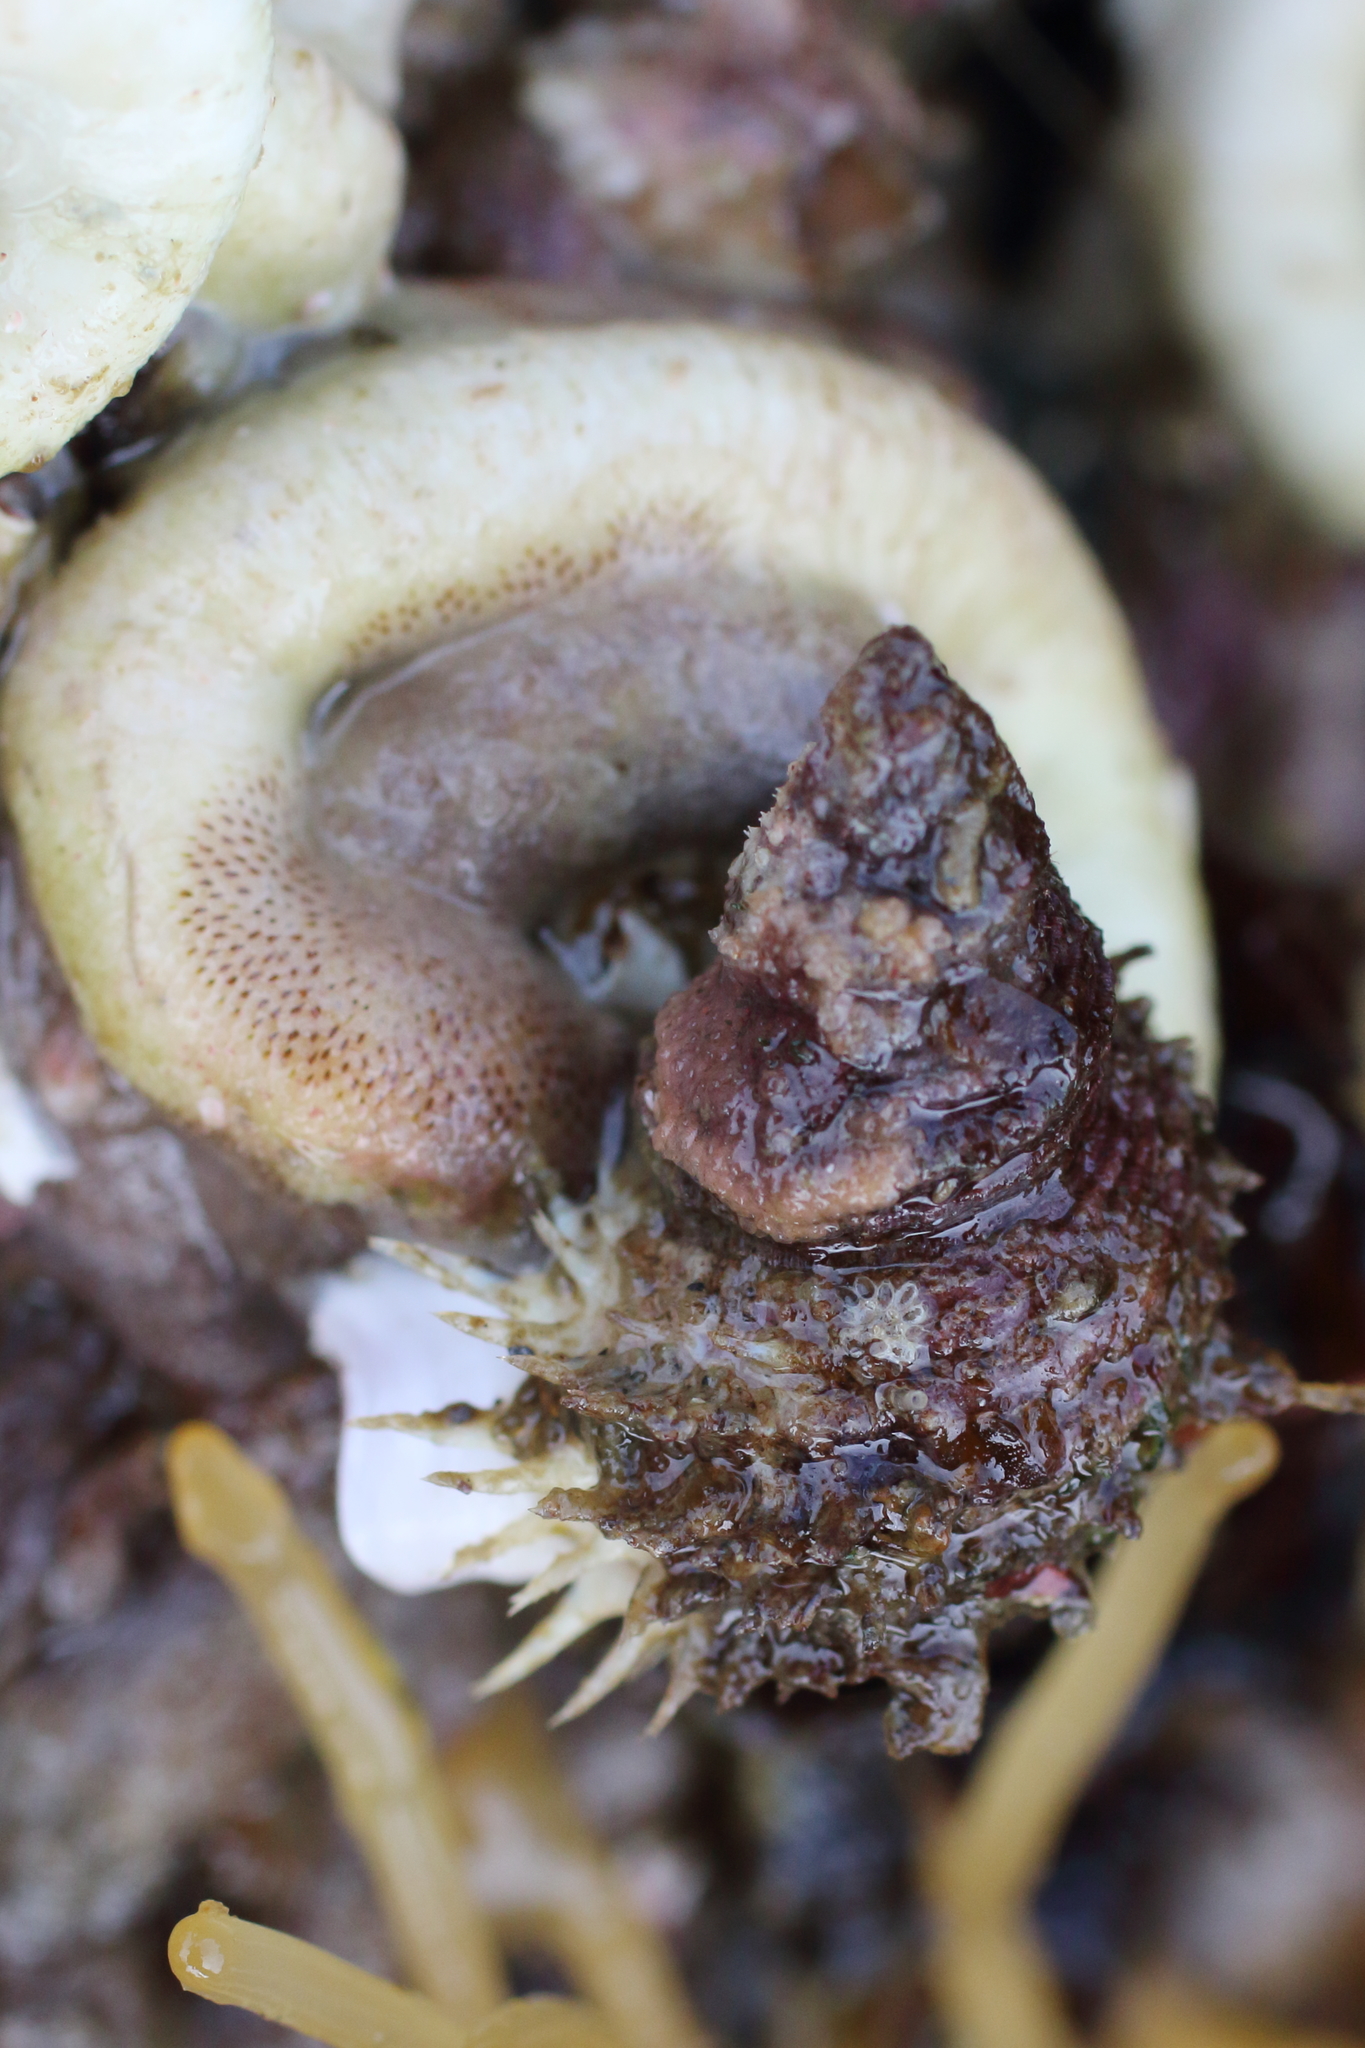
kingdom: Animalia
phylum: Mollusca
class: Gastropoda
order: Littorinimorpha
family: Capulidae
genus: Trichotropis
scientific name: Trichotropis cancellata
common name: Cancellate hairysnail
